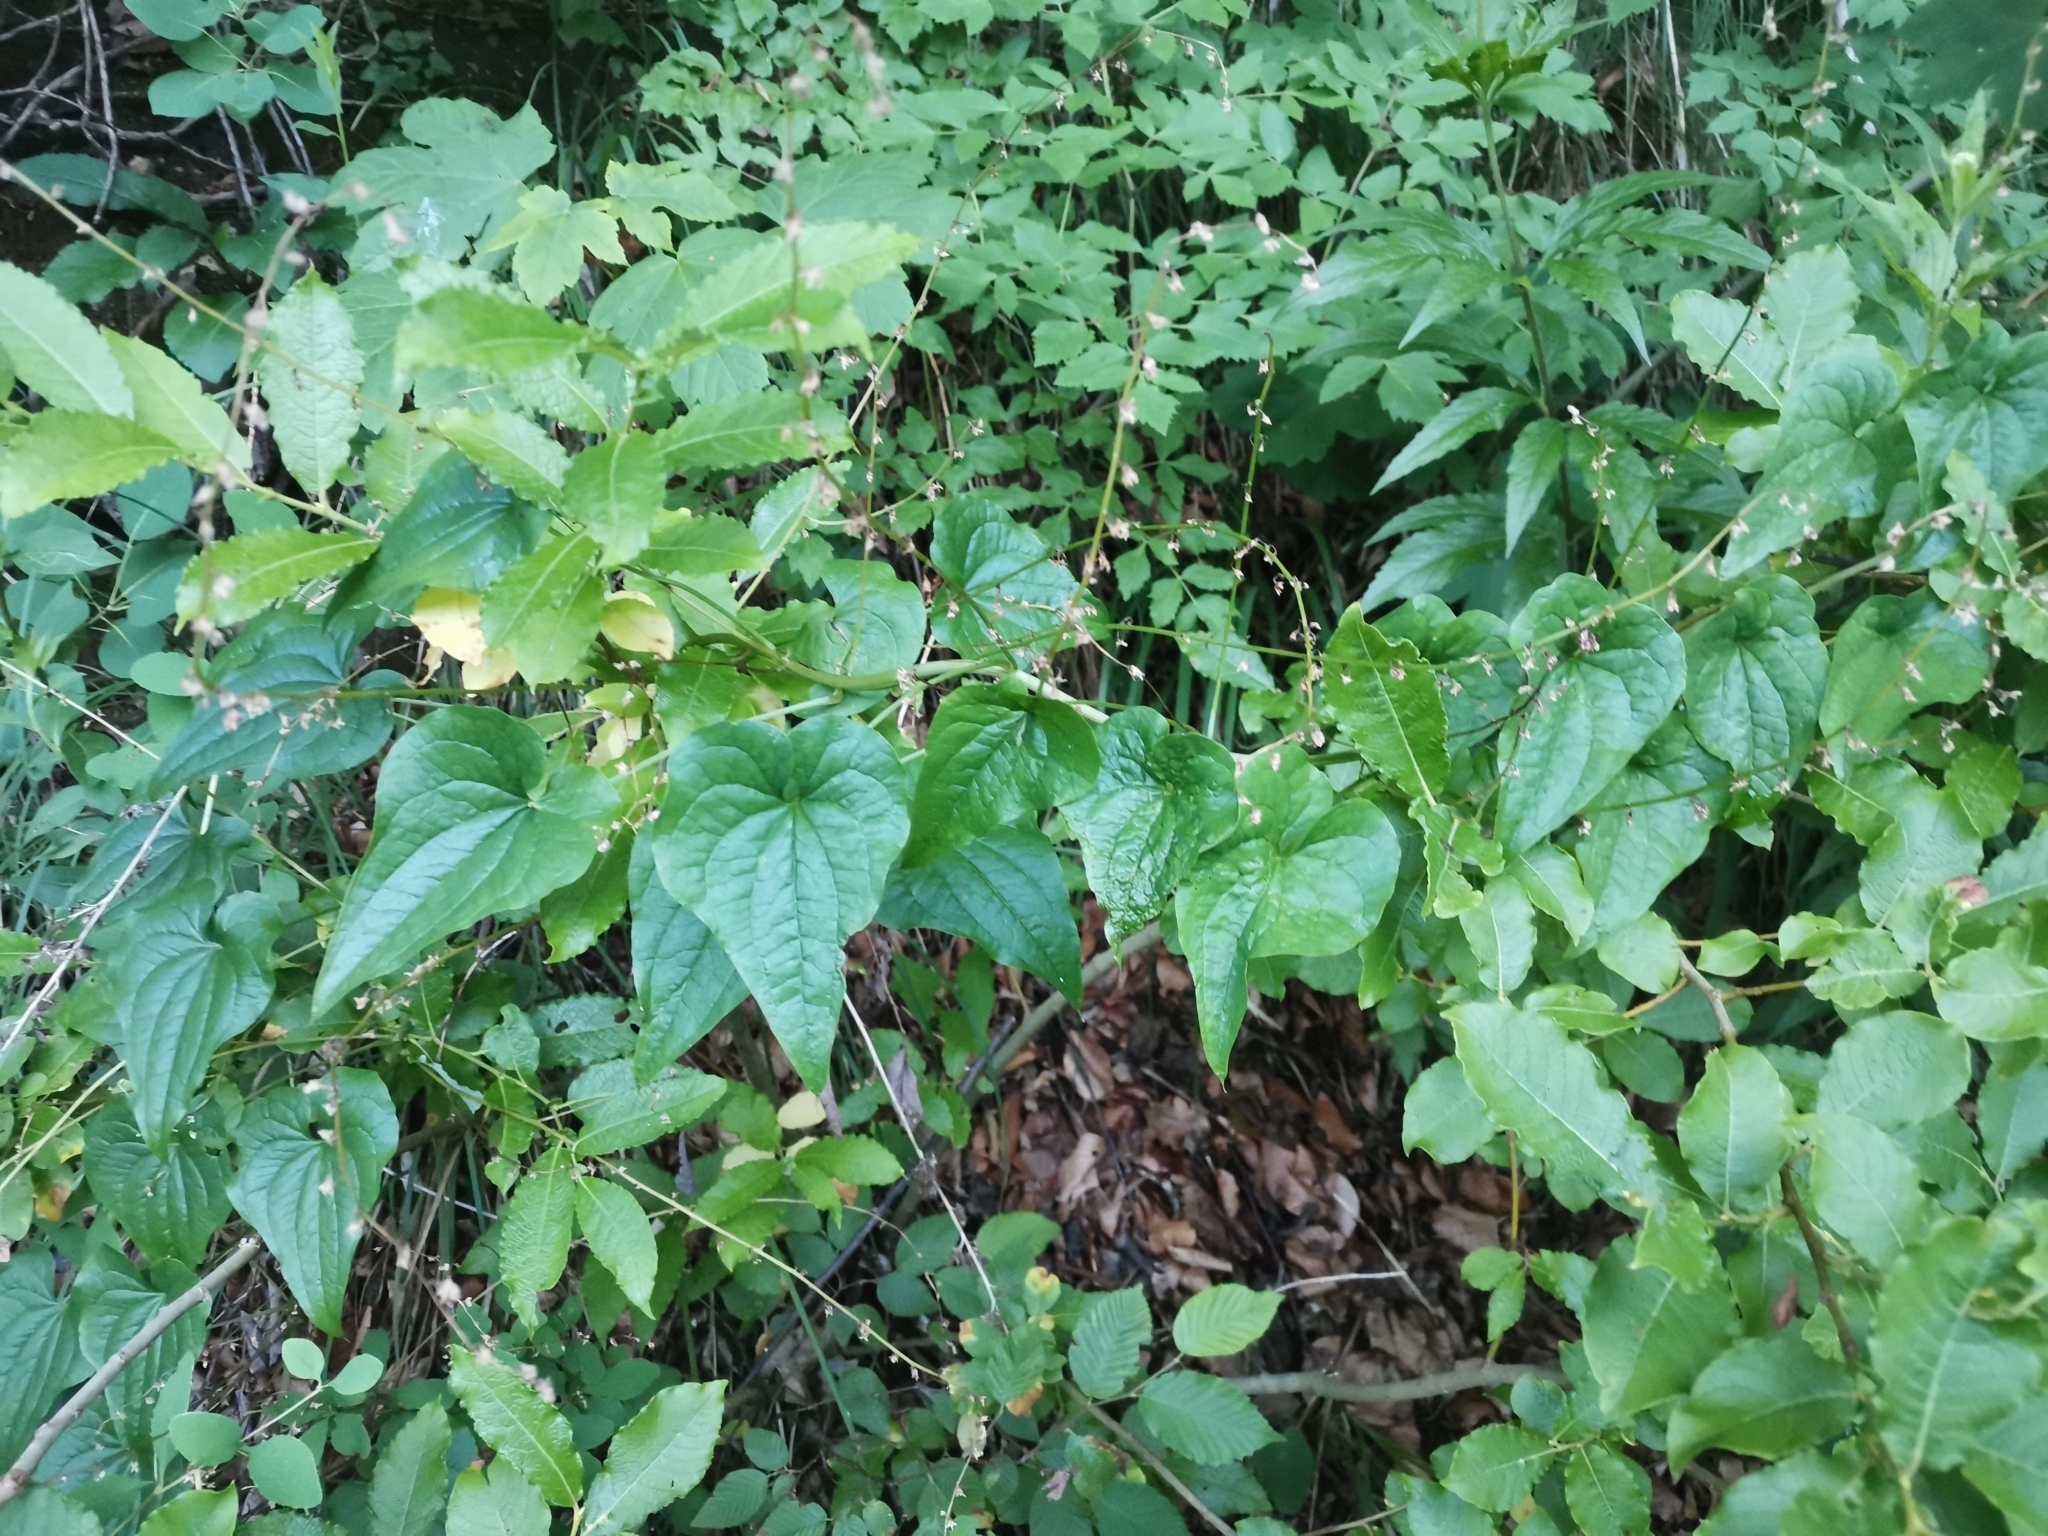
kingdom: Plantae
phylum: Tracheophyta
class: Liliopsida
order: Dioscoreales
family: Dioscoreaceae
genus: Dioscorea
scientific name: Dioscorea communis
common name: Black-bindweed
